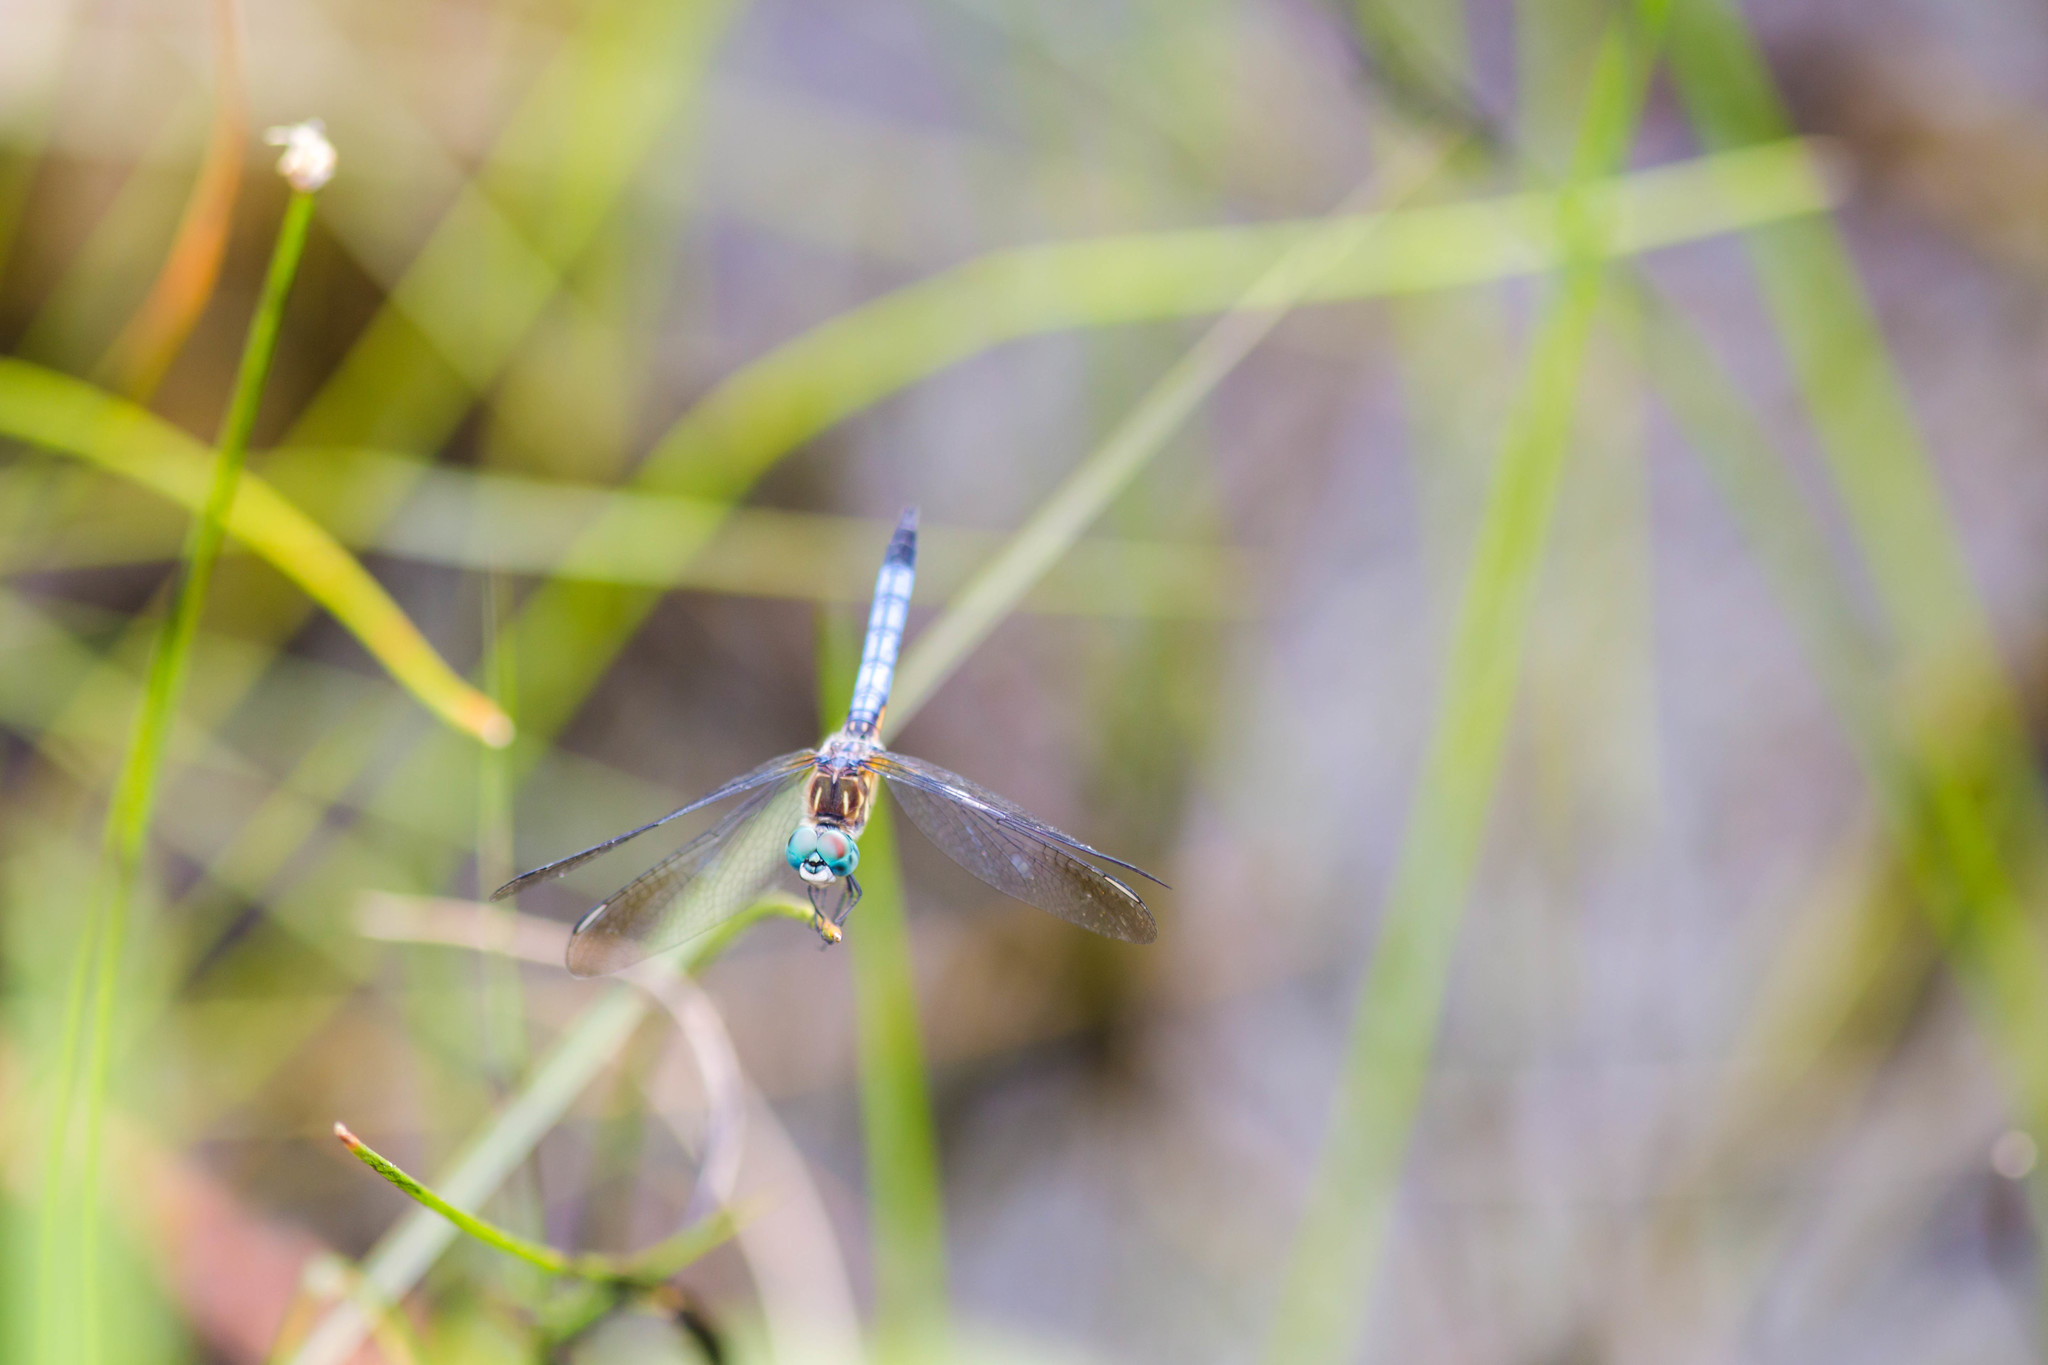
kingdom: Animalia
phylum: Arthropoda
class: Insecta
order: Odonata
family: Libellulidae
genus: Pachydiplax
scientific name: Pachydiplax longipennis
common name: Blue dasher
